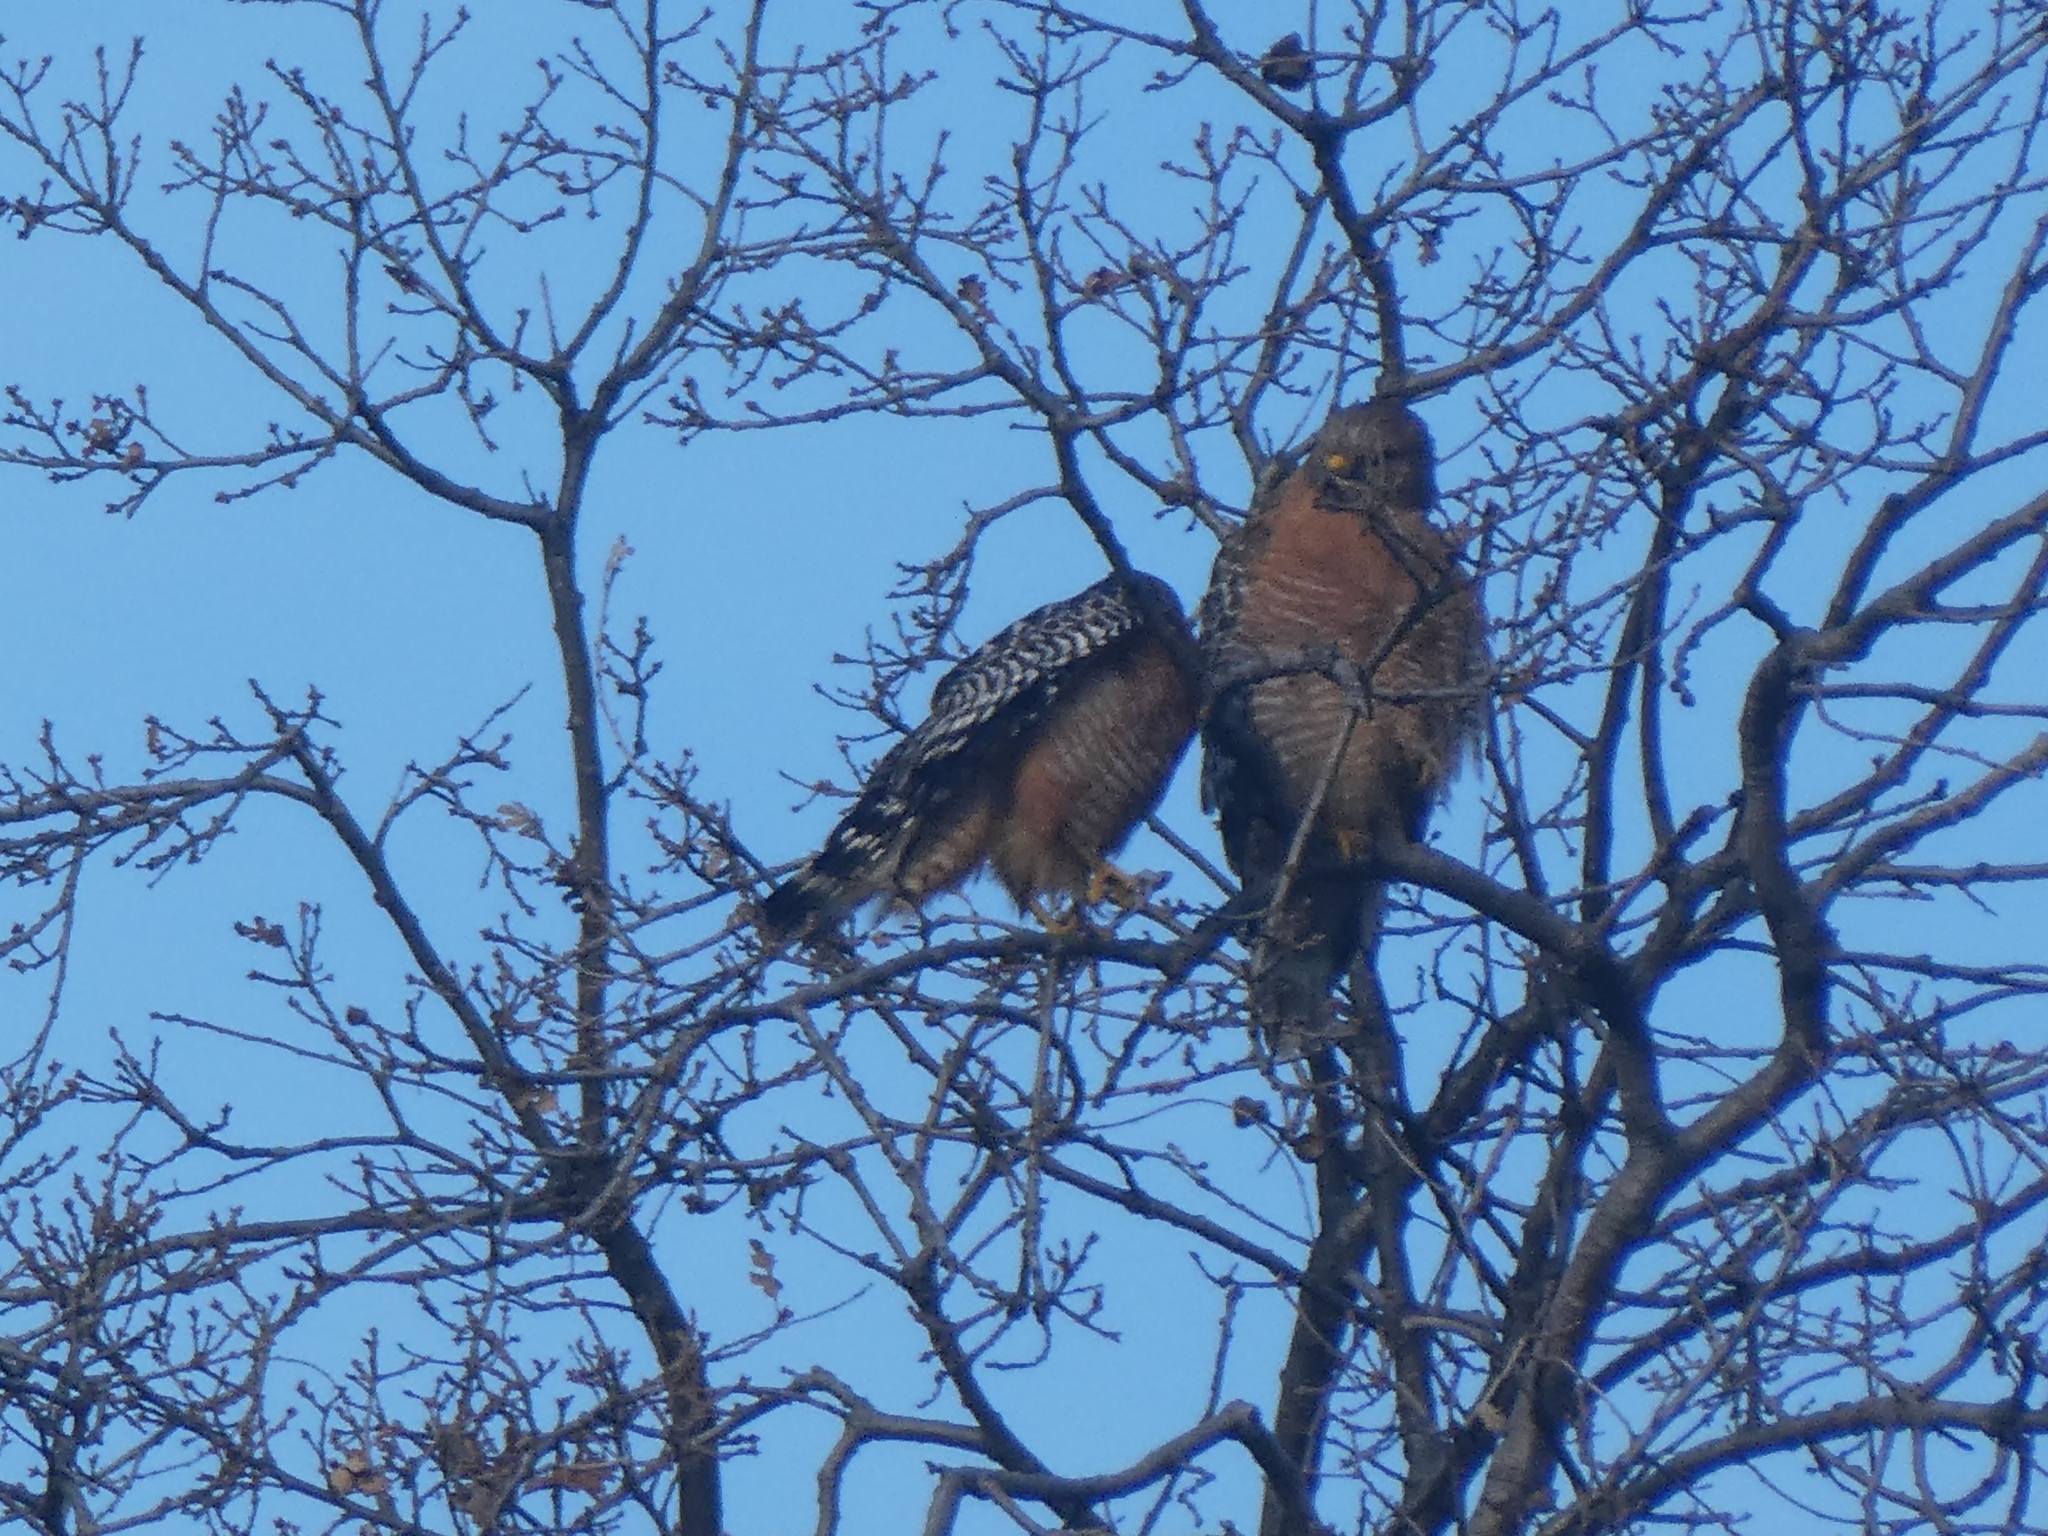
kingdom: Animalia
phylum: Chordata
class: Aves
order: Accipitriformes
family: Accipitridae
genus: Buteo
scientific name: Buteo lineatus
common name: Red-shouldered hawk
